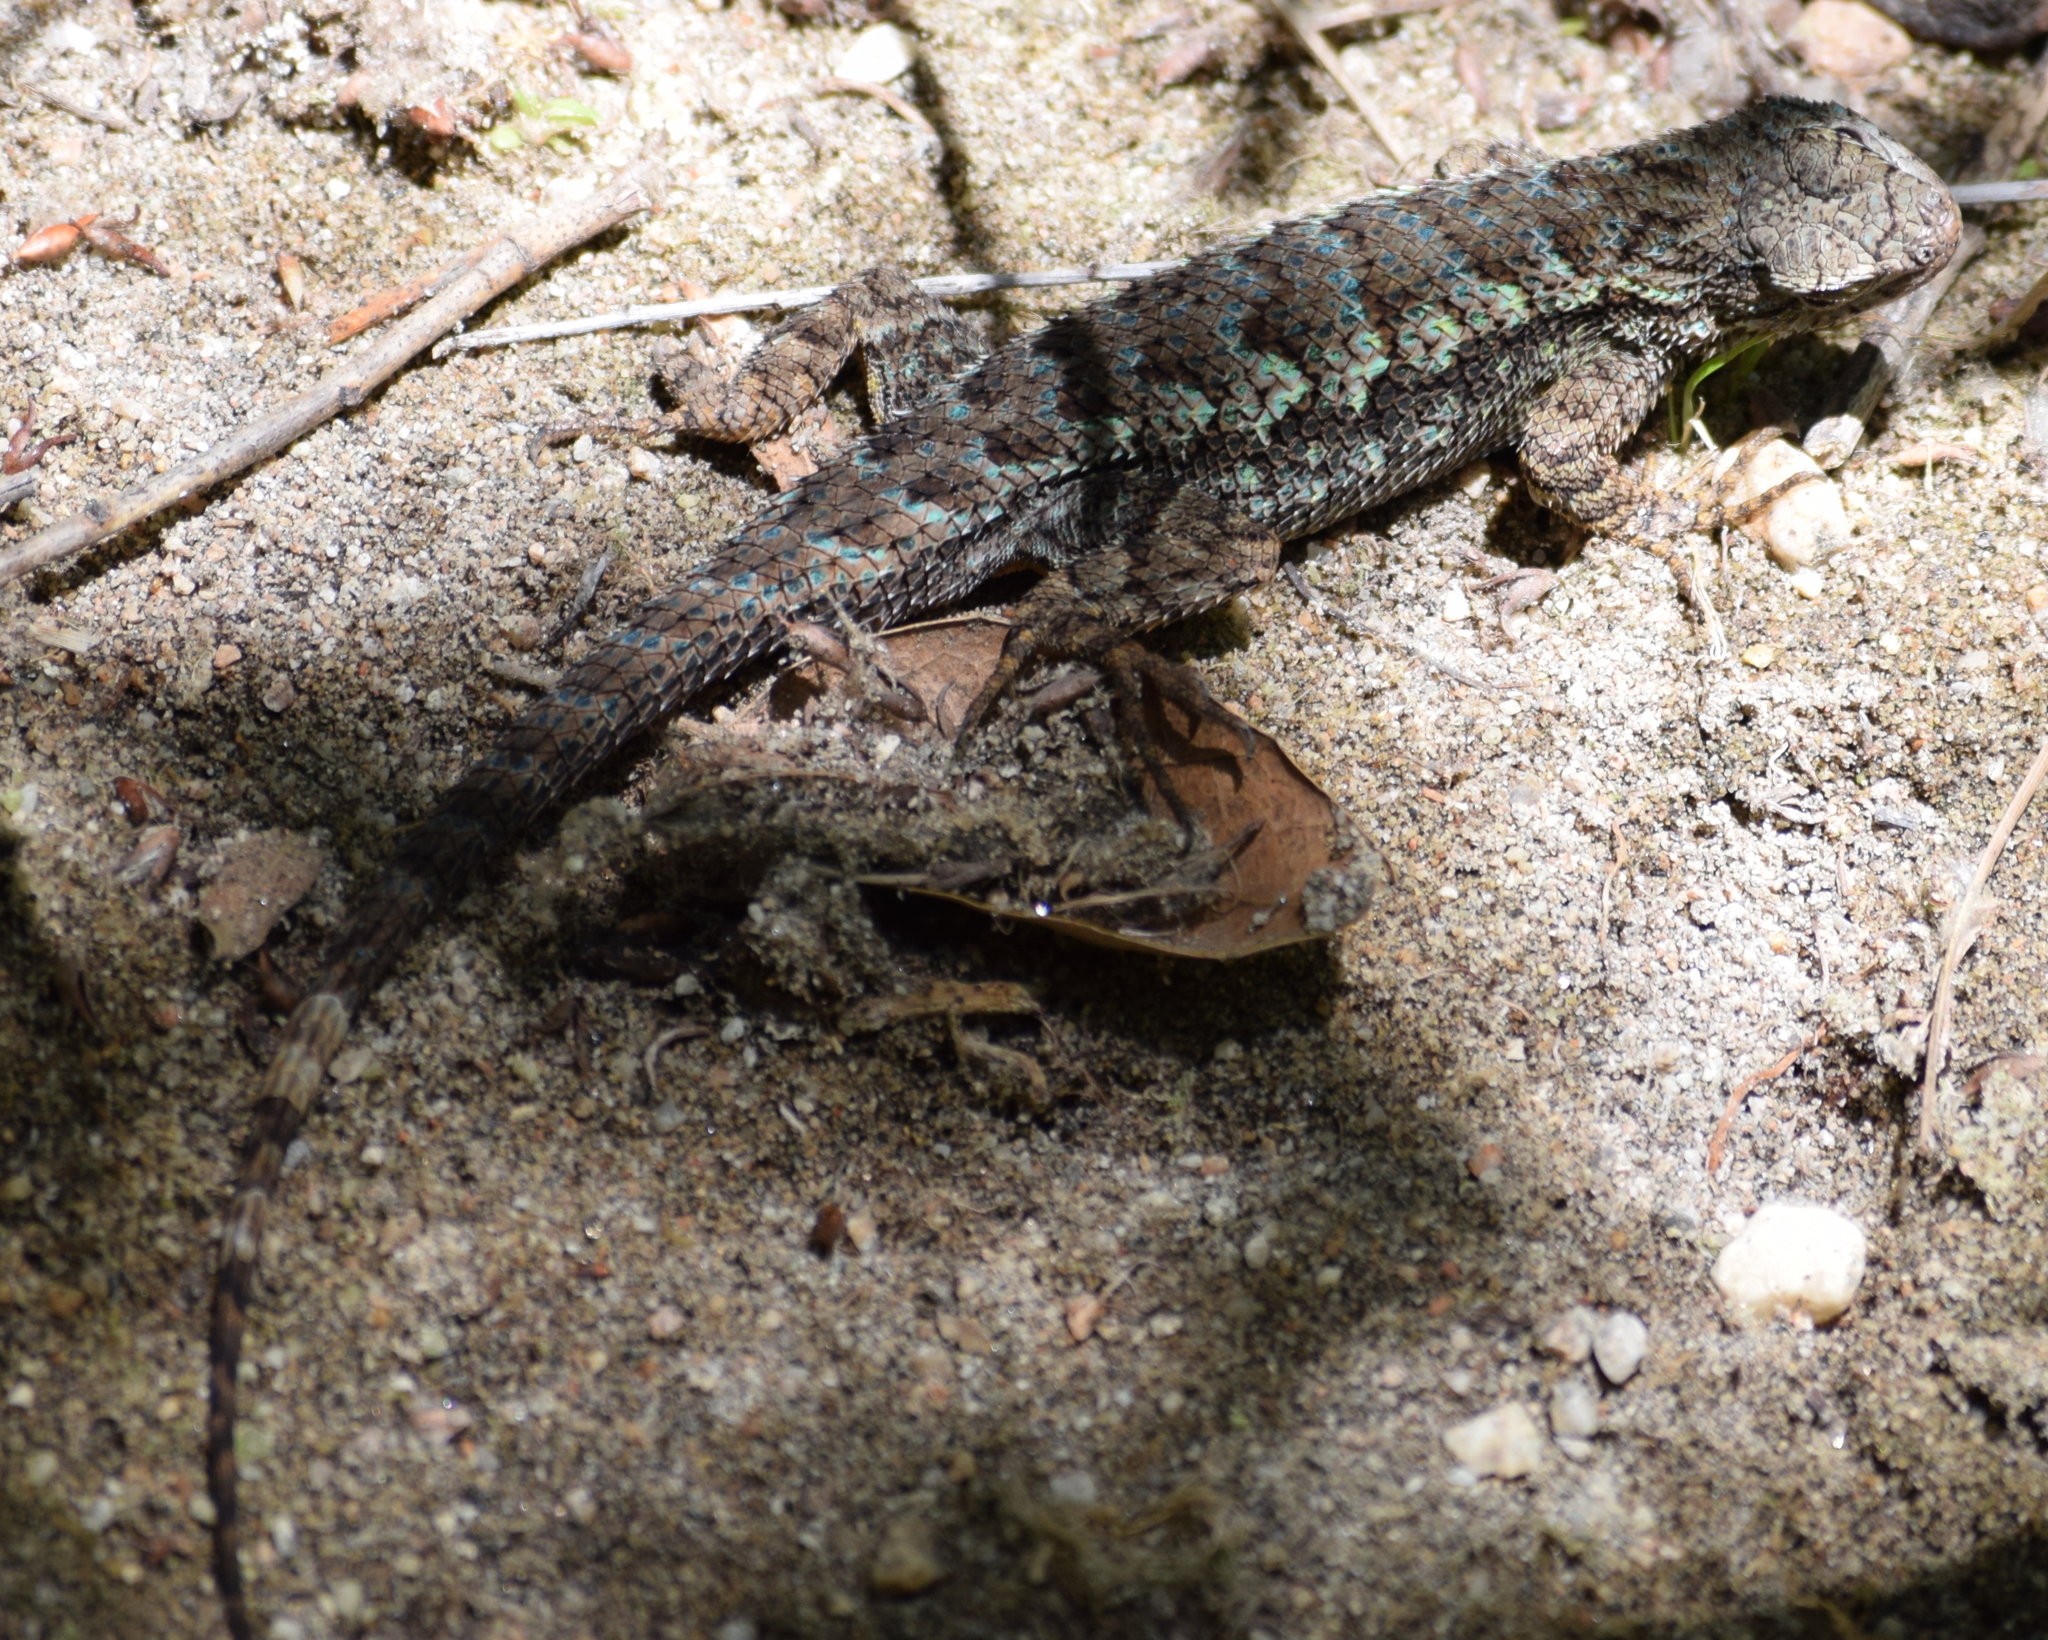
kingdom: Animalia
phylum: Chordata
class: Squamata
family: Phrynosomatidae
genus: Sceloporus
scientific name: Sceloporus occidentalis
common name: Western fence lizard
